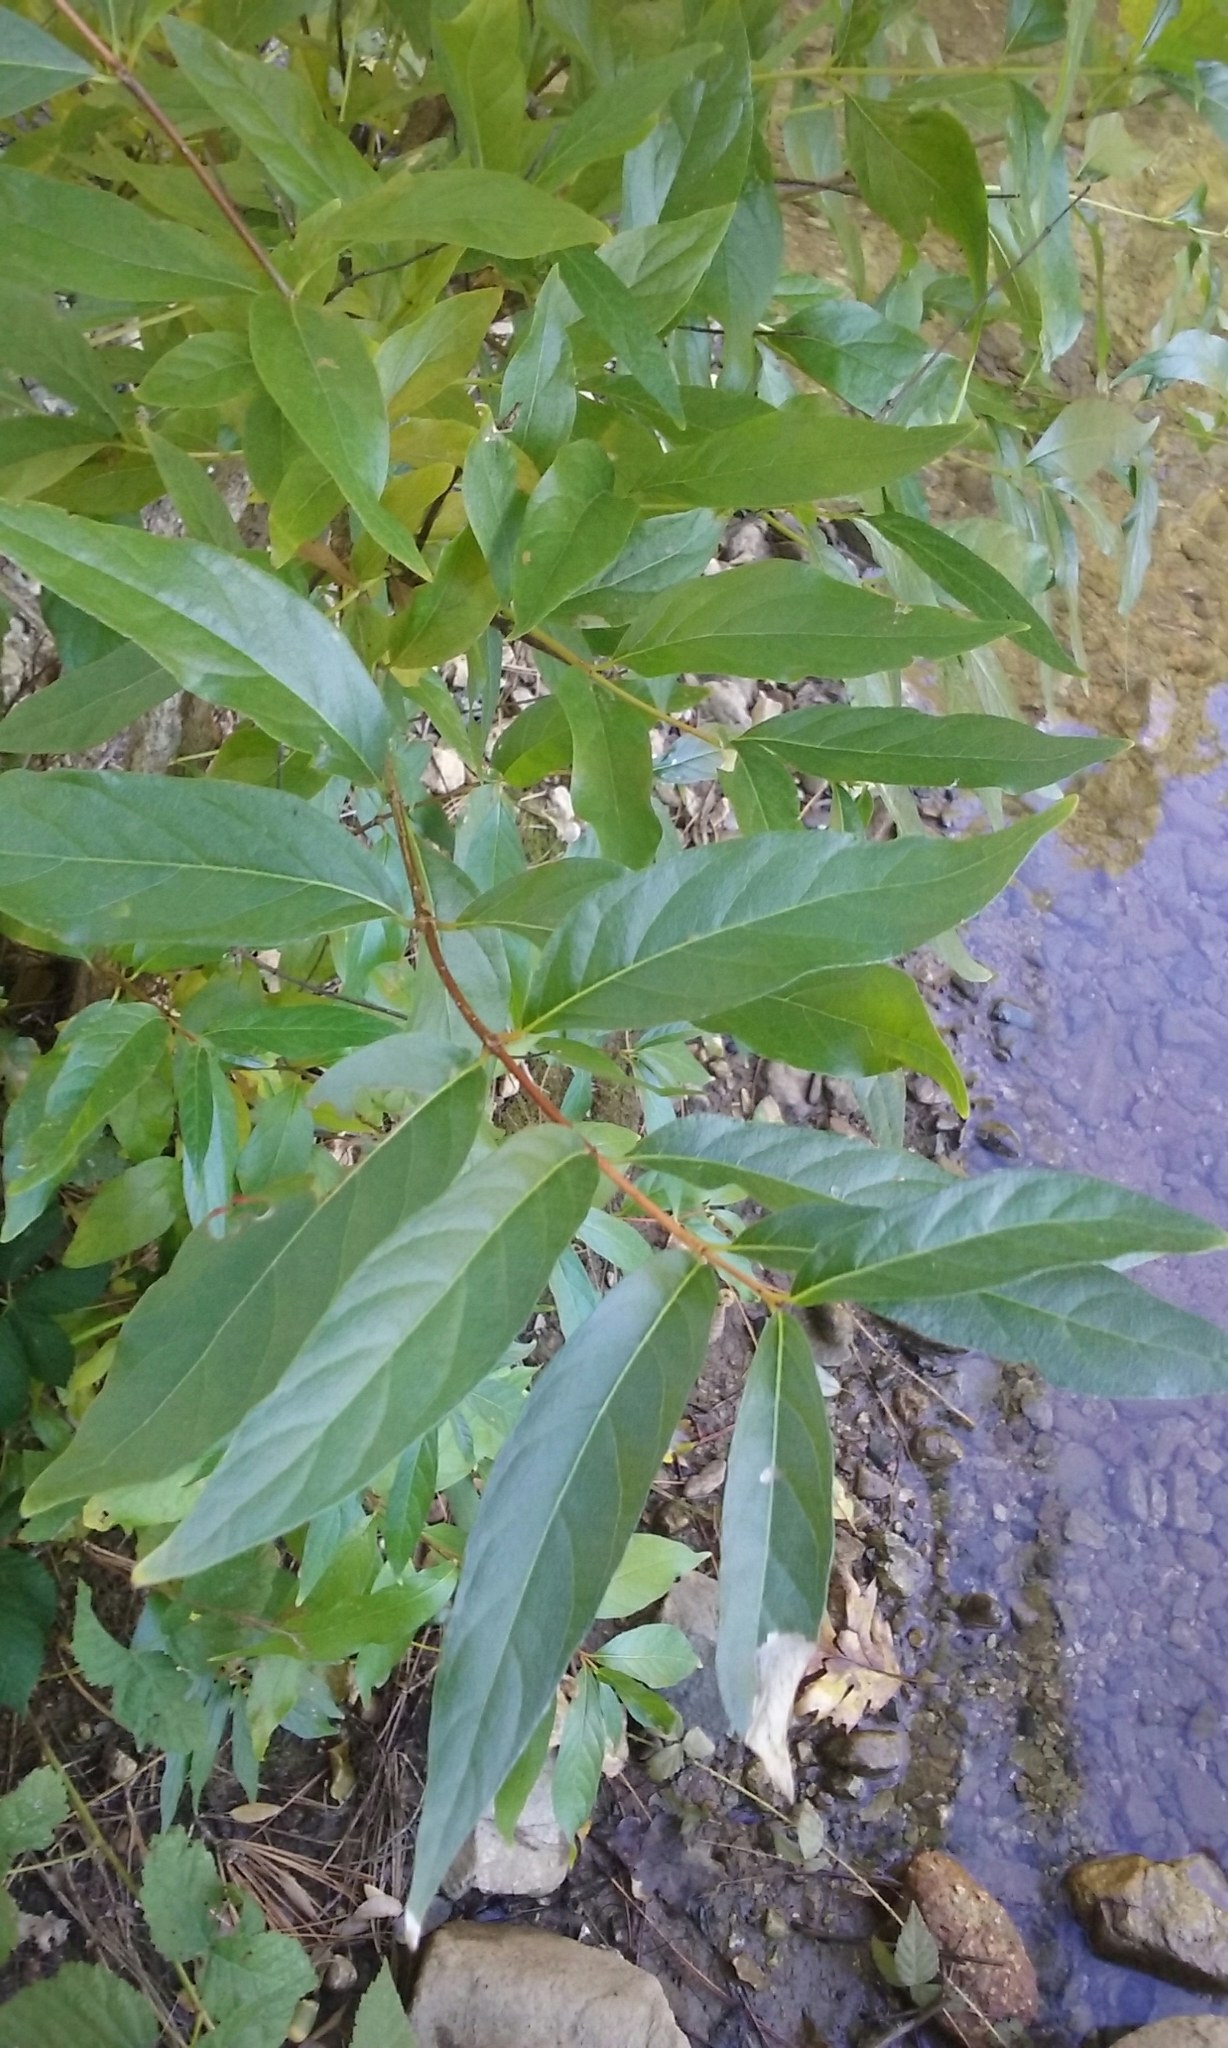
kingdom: Plantae
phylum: Tracheophyta
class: Magnoliopsida
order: Gentianales
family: Rubiaceae
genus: Cephalanthus
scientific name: Cephalanthus occidentalis
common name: Button-willow
